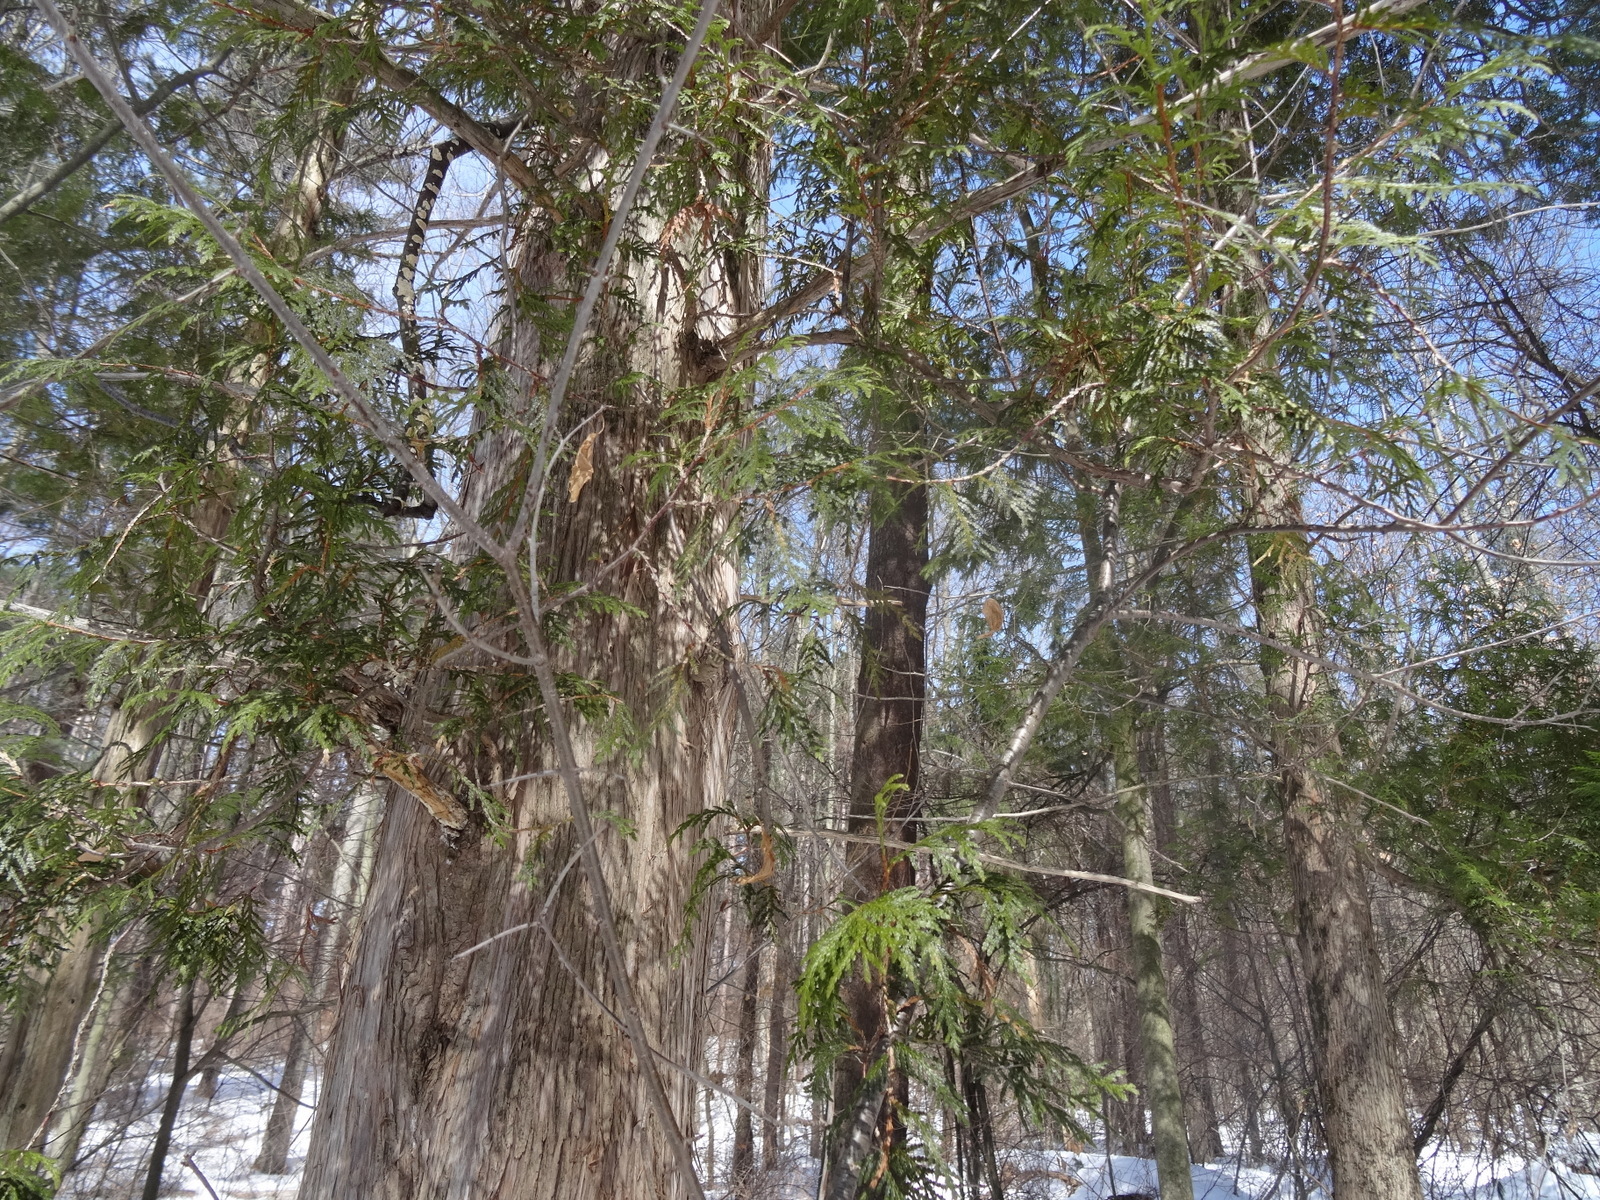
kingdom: Plantae
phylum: Tracheophyta
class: Pinopsida
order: Pinales
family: Cupressaceae
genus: Thuja
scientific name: Thuja occidentalis
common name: Northern white-cedar
